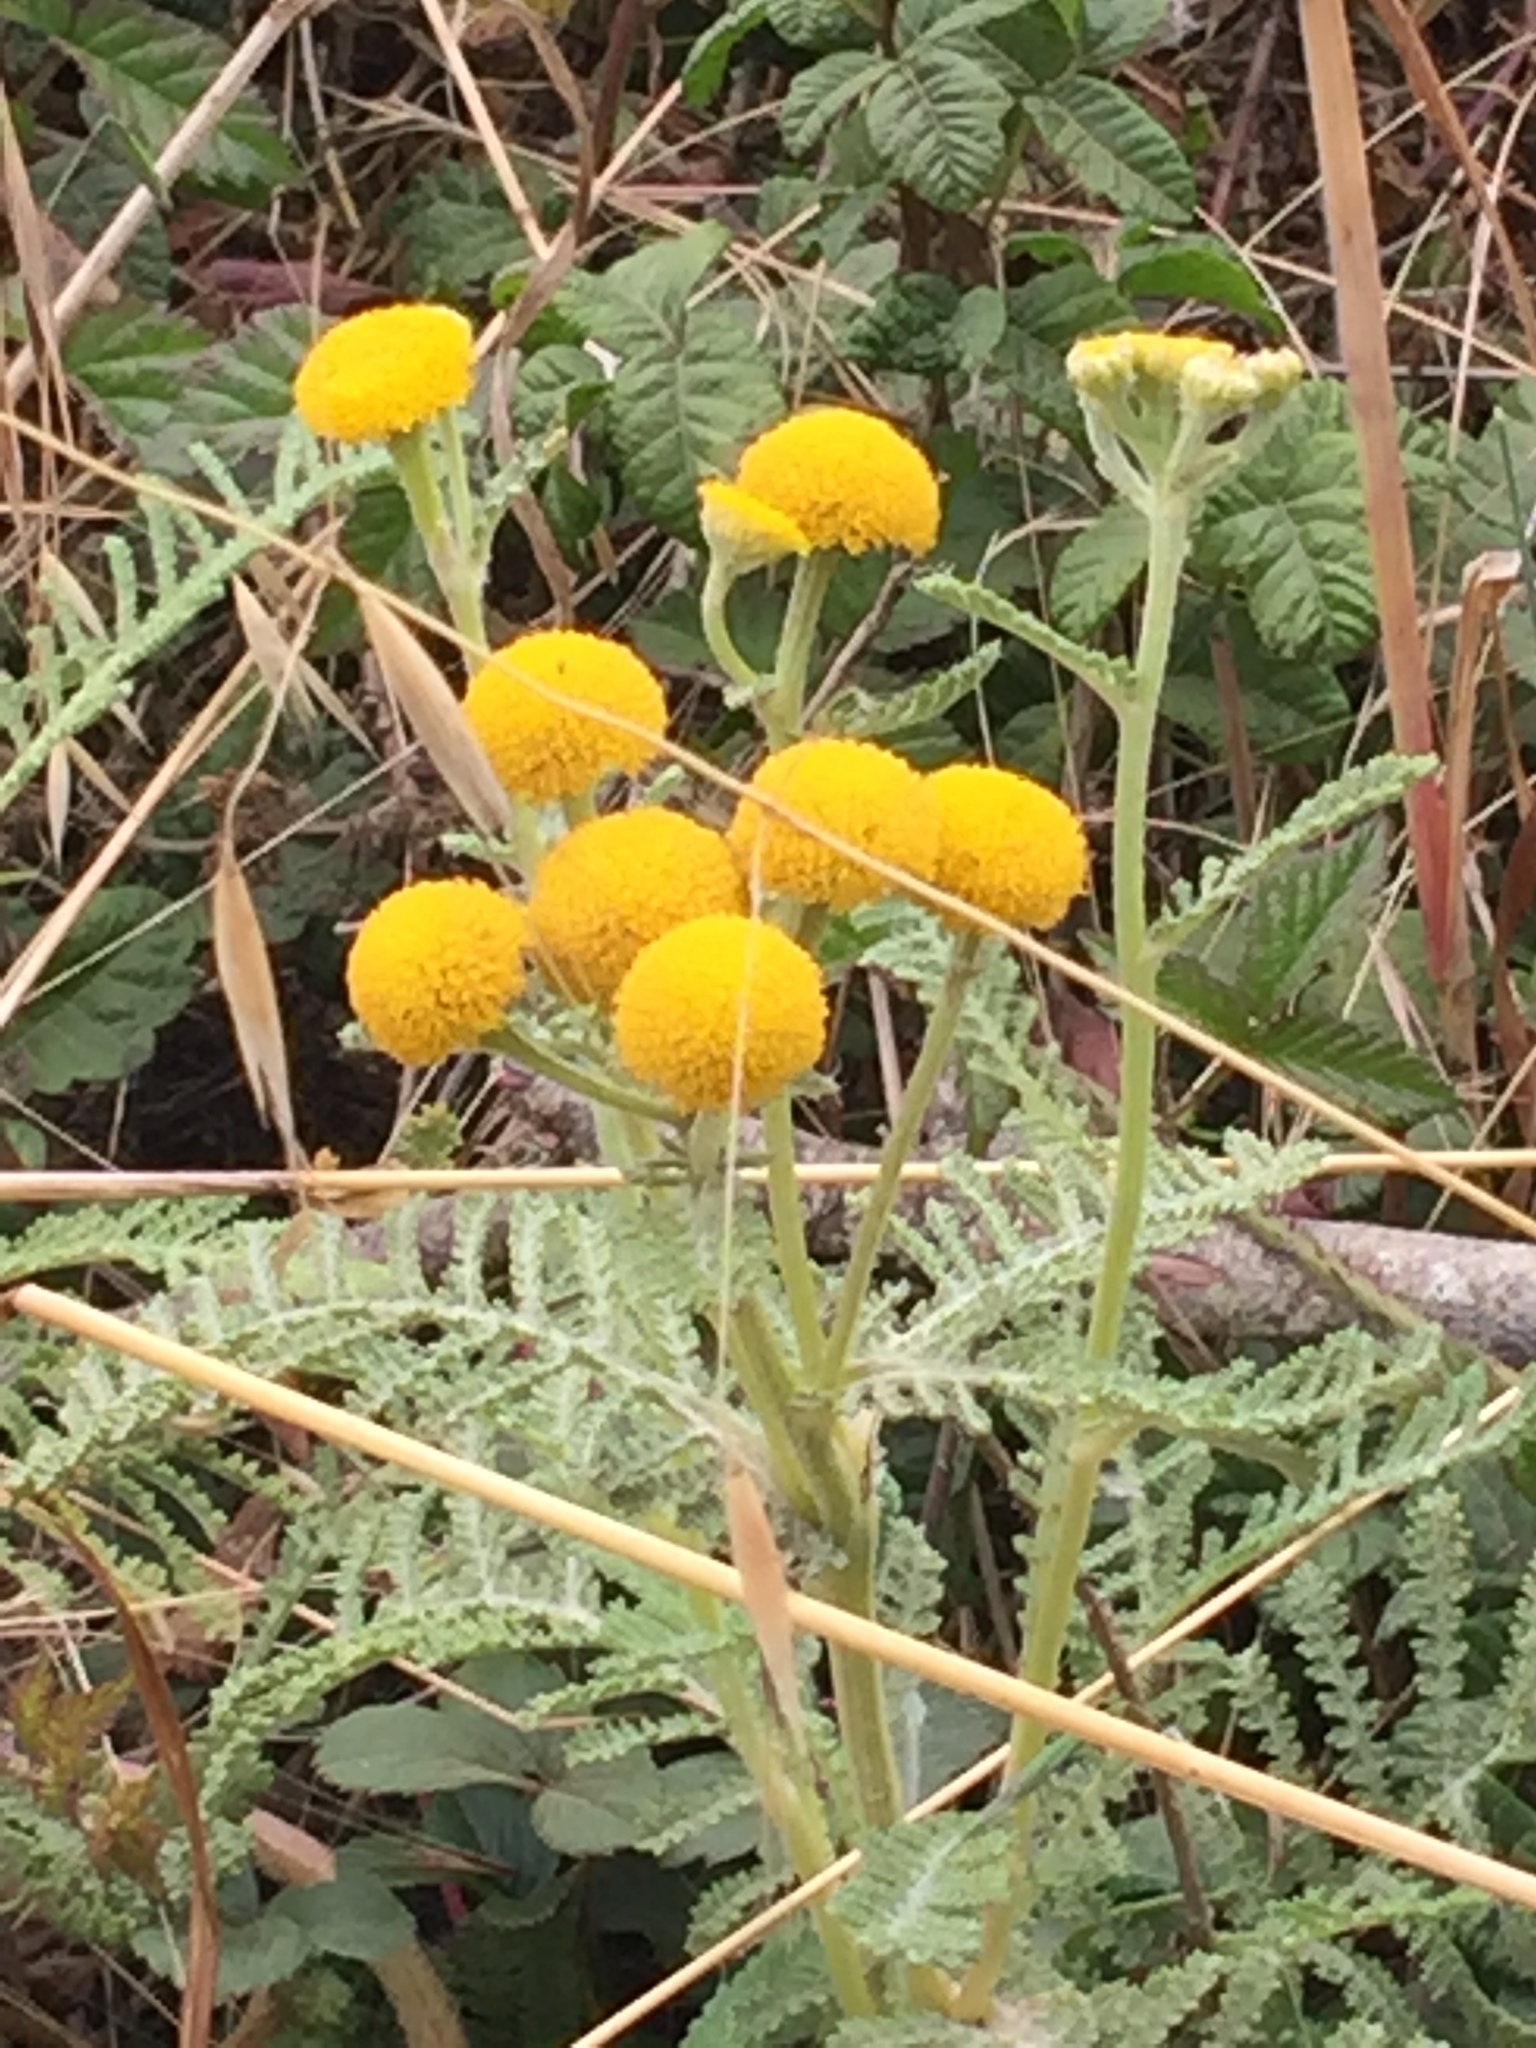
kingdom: Plantae
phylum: Tracheophyta
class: Magnoliopsida
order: Asterales
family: Asteraceae
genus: Tanacetum
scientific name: Tanacetum bipinnatum
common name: Dwarf tansy
